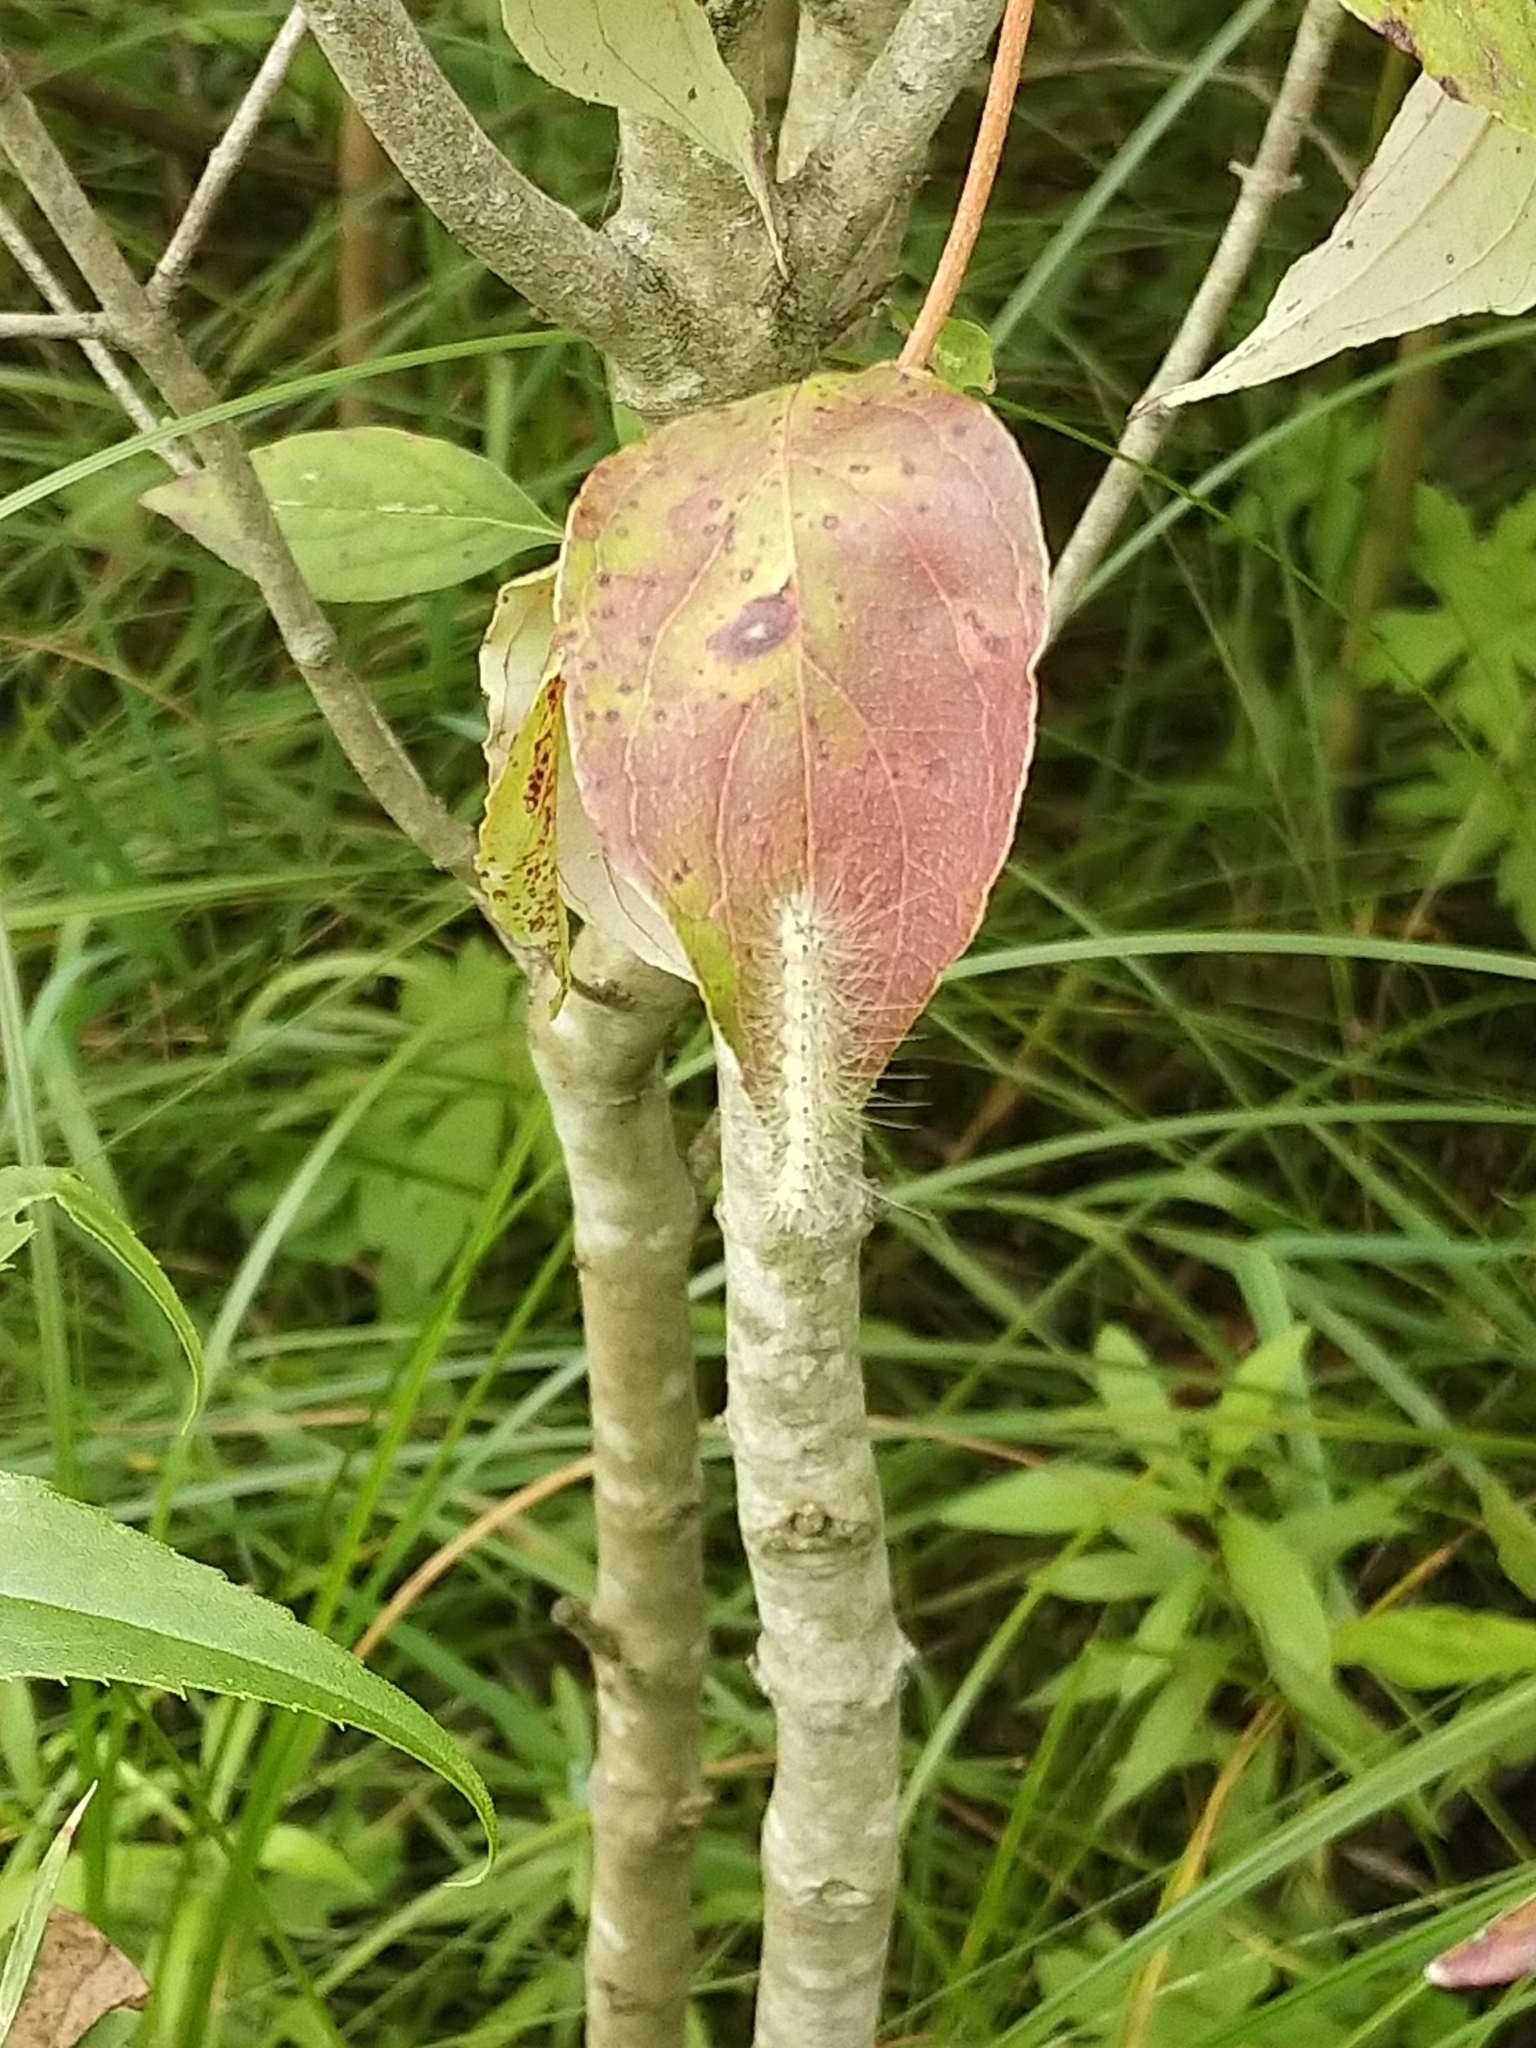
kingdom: Animalia
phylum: Arthropoda
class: Insecta
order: Lepidoptera
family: Erebidae
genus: Hyphantria
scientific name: Hyphantria cunea
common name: American white moth
